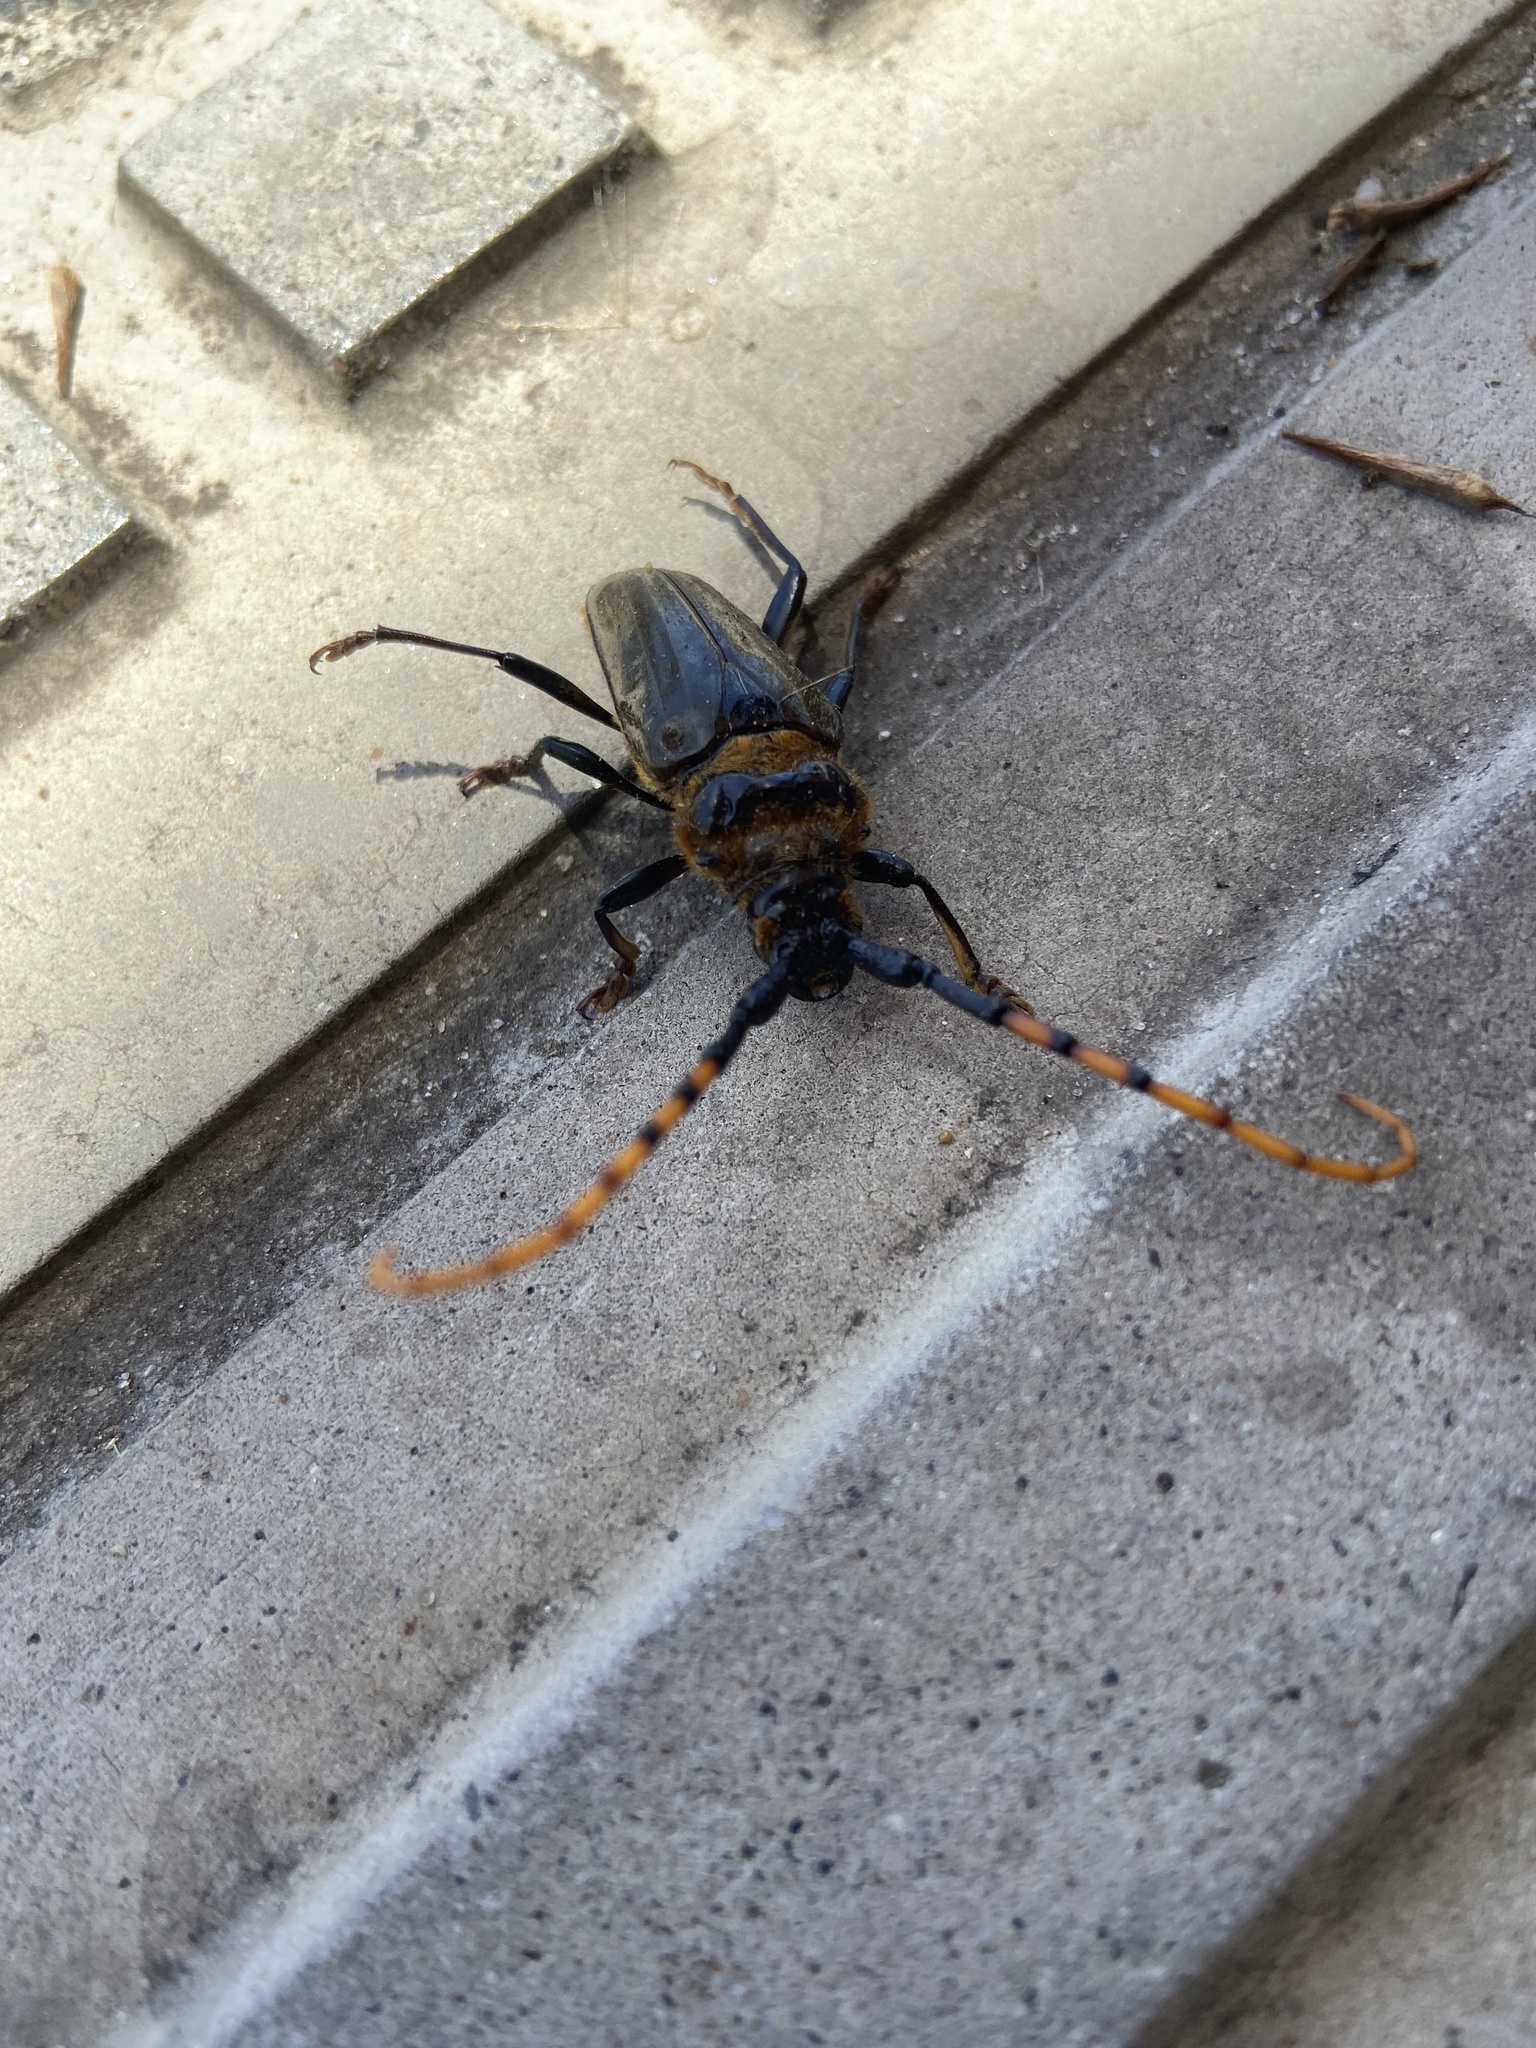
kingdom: Animalia
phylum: Arthropoda
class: Insecta
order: Coleoptera
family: Cerambycidae
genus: Retrachydes
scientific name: Retrachydes thoracicus
